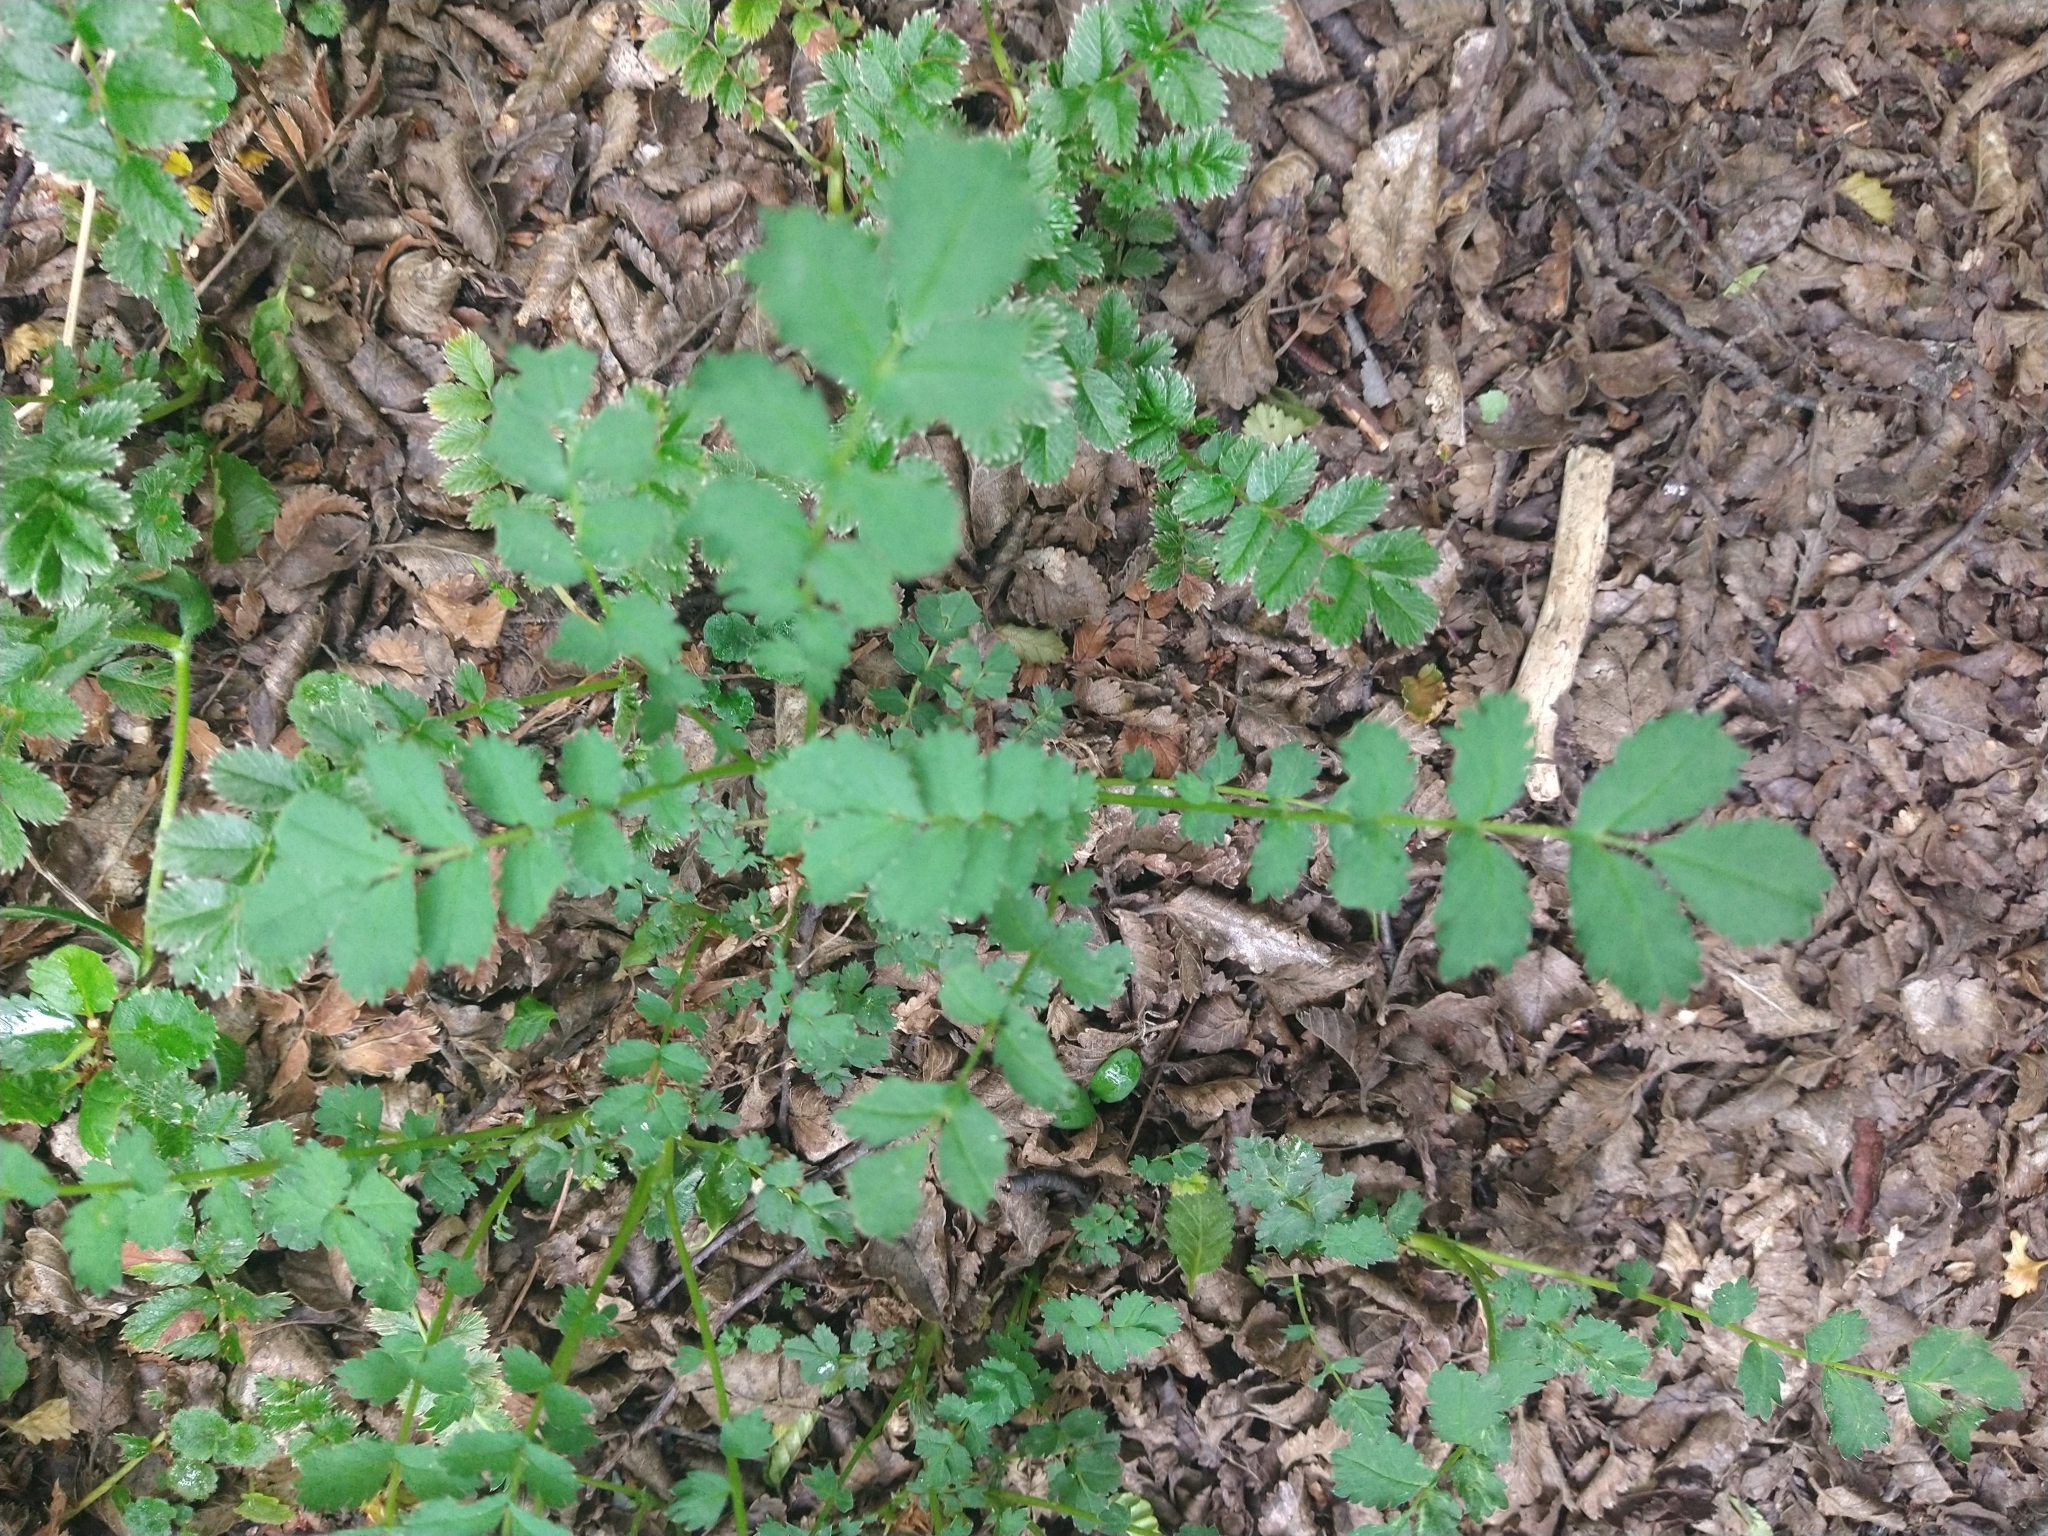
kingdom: Plantae
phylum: Tracheophyta
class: Magnoliopsida
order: Rosales
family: Rosaceae
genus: Acaena
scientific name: Acaena magellanica
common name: New zealand burr
